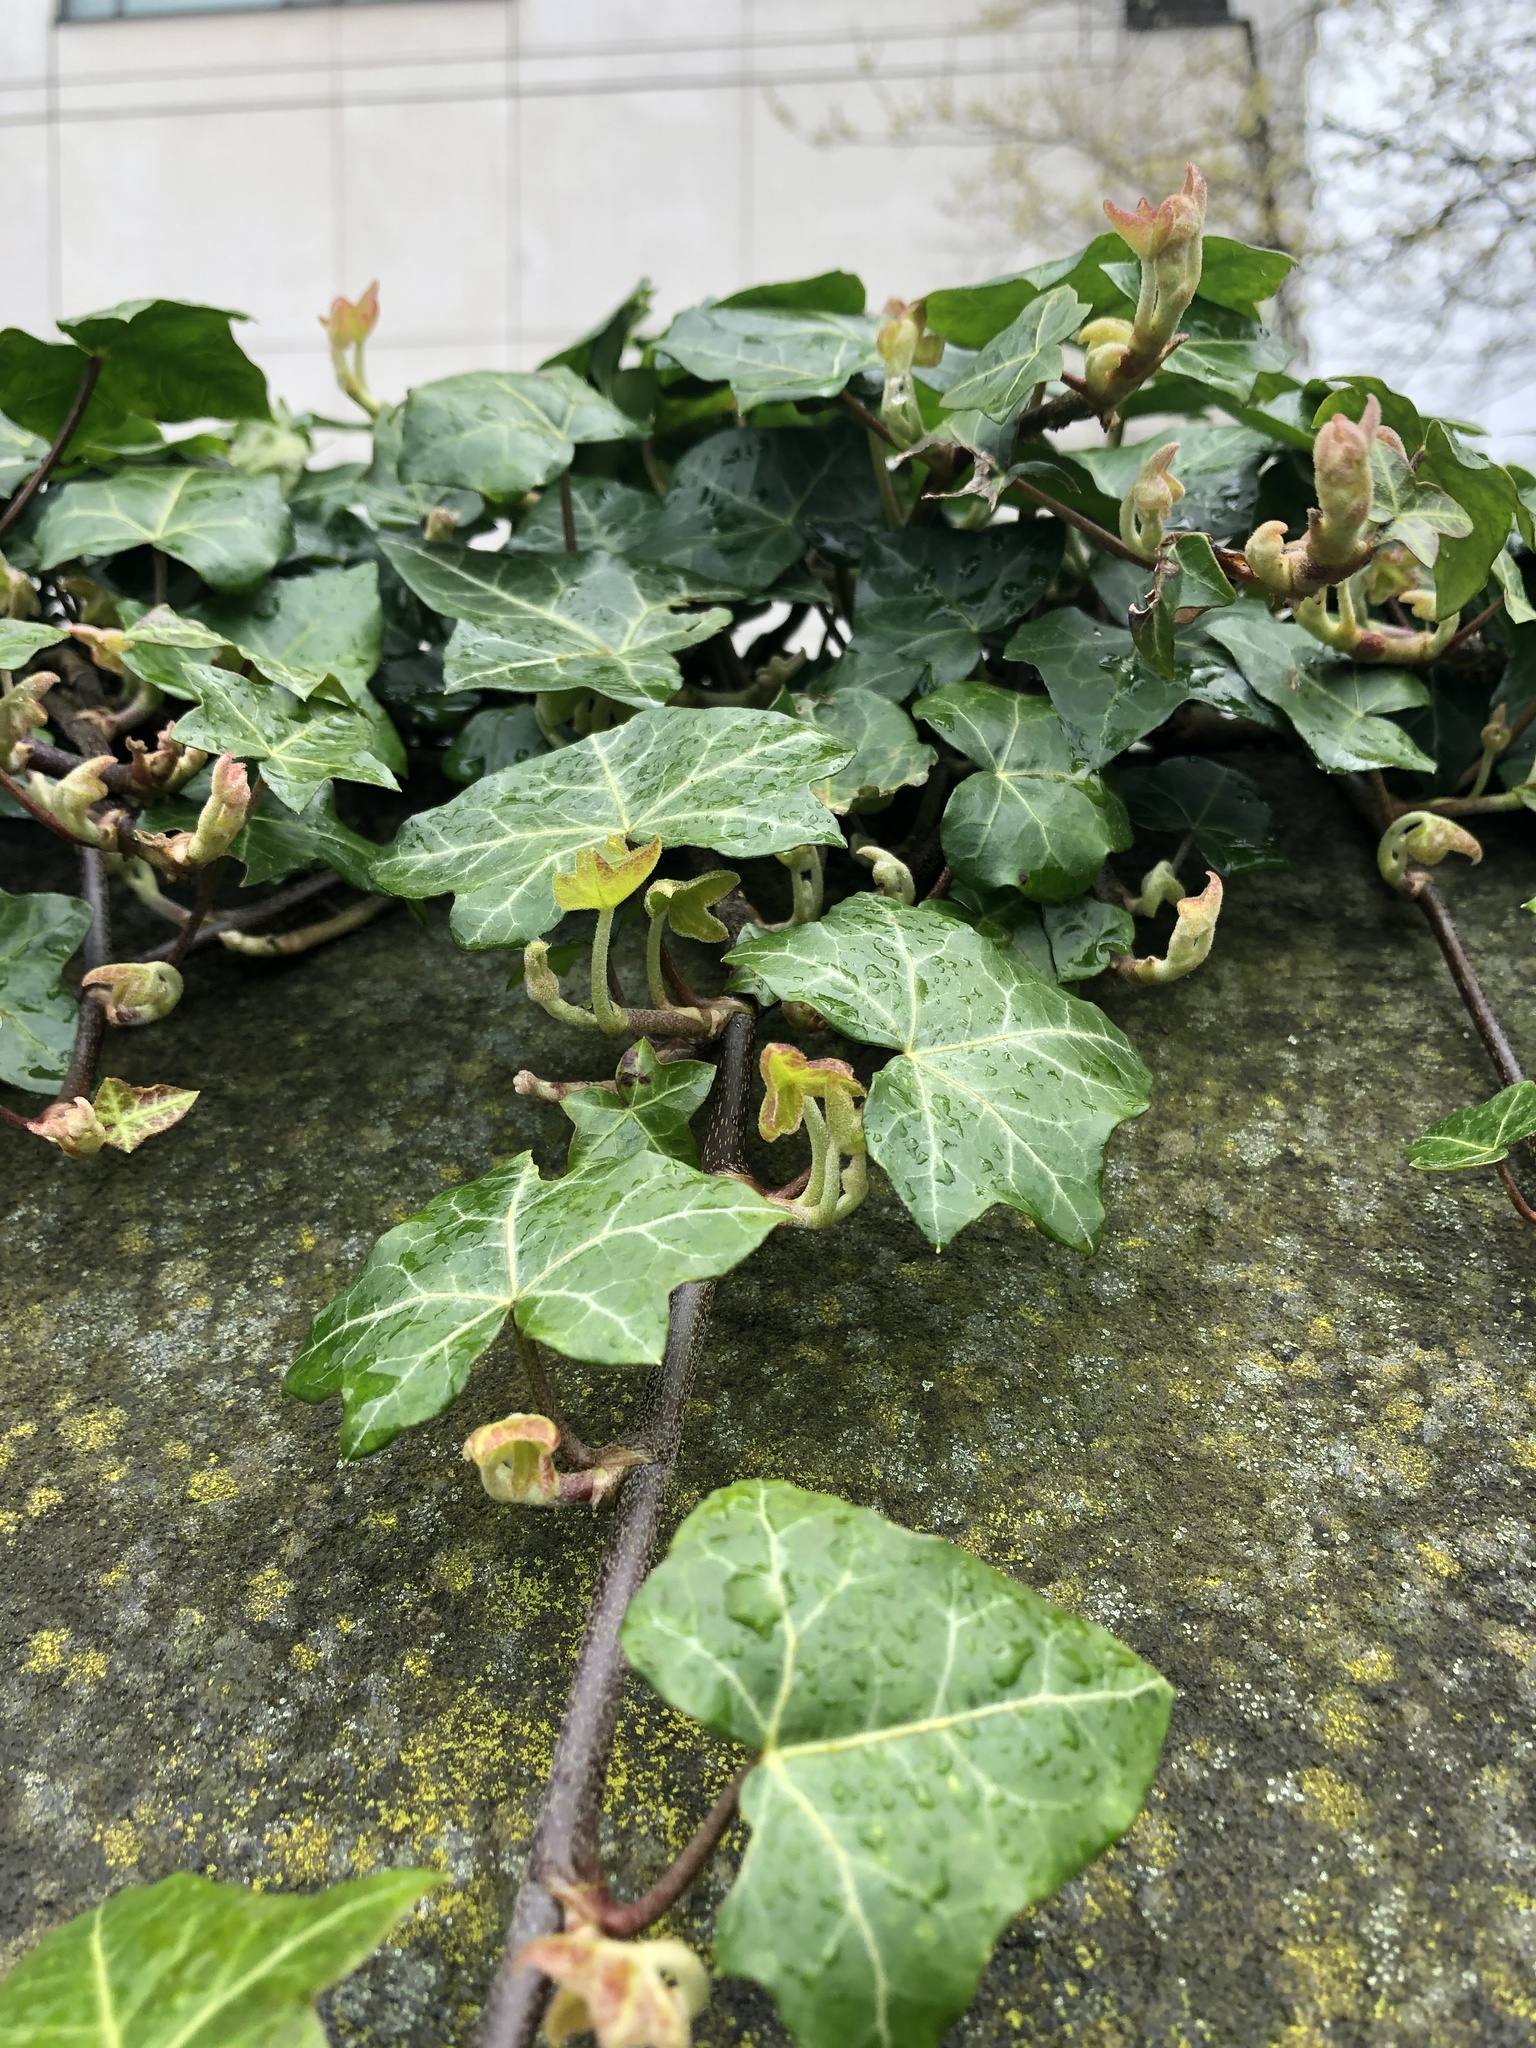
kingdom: Plantae
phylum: Tracheophyta
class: Magnoliopsida
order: Apiales
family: Araliaceae
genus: Hedera
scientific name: Hedera helix
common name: Ivy
